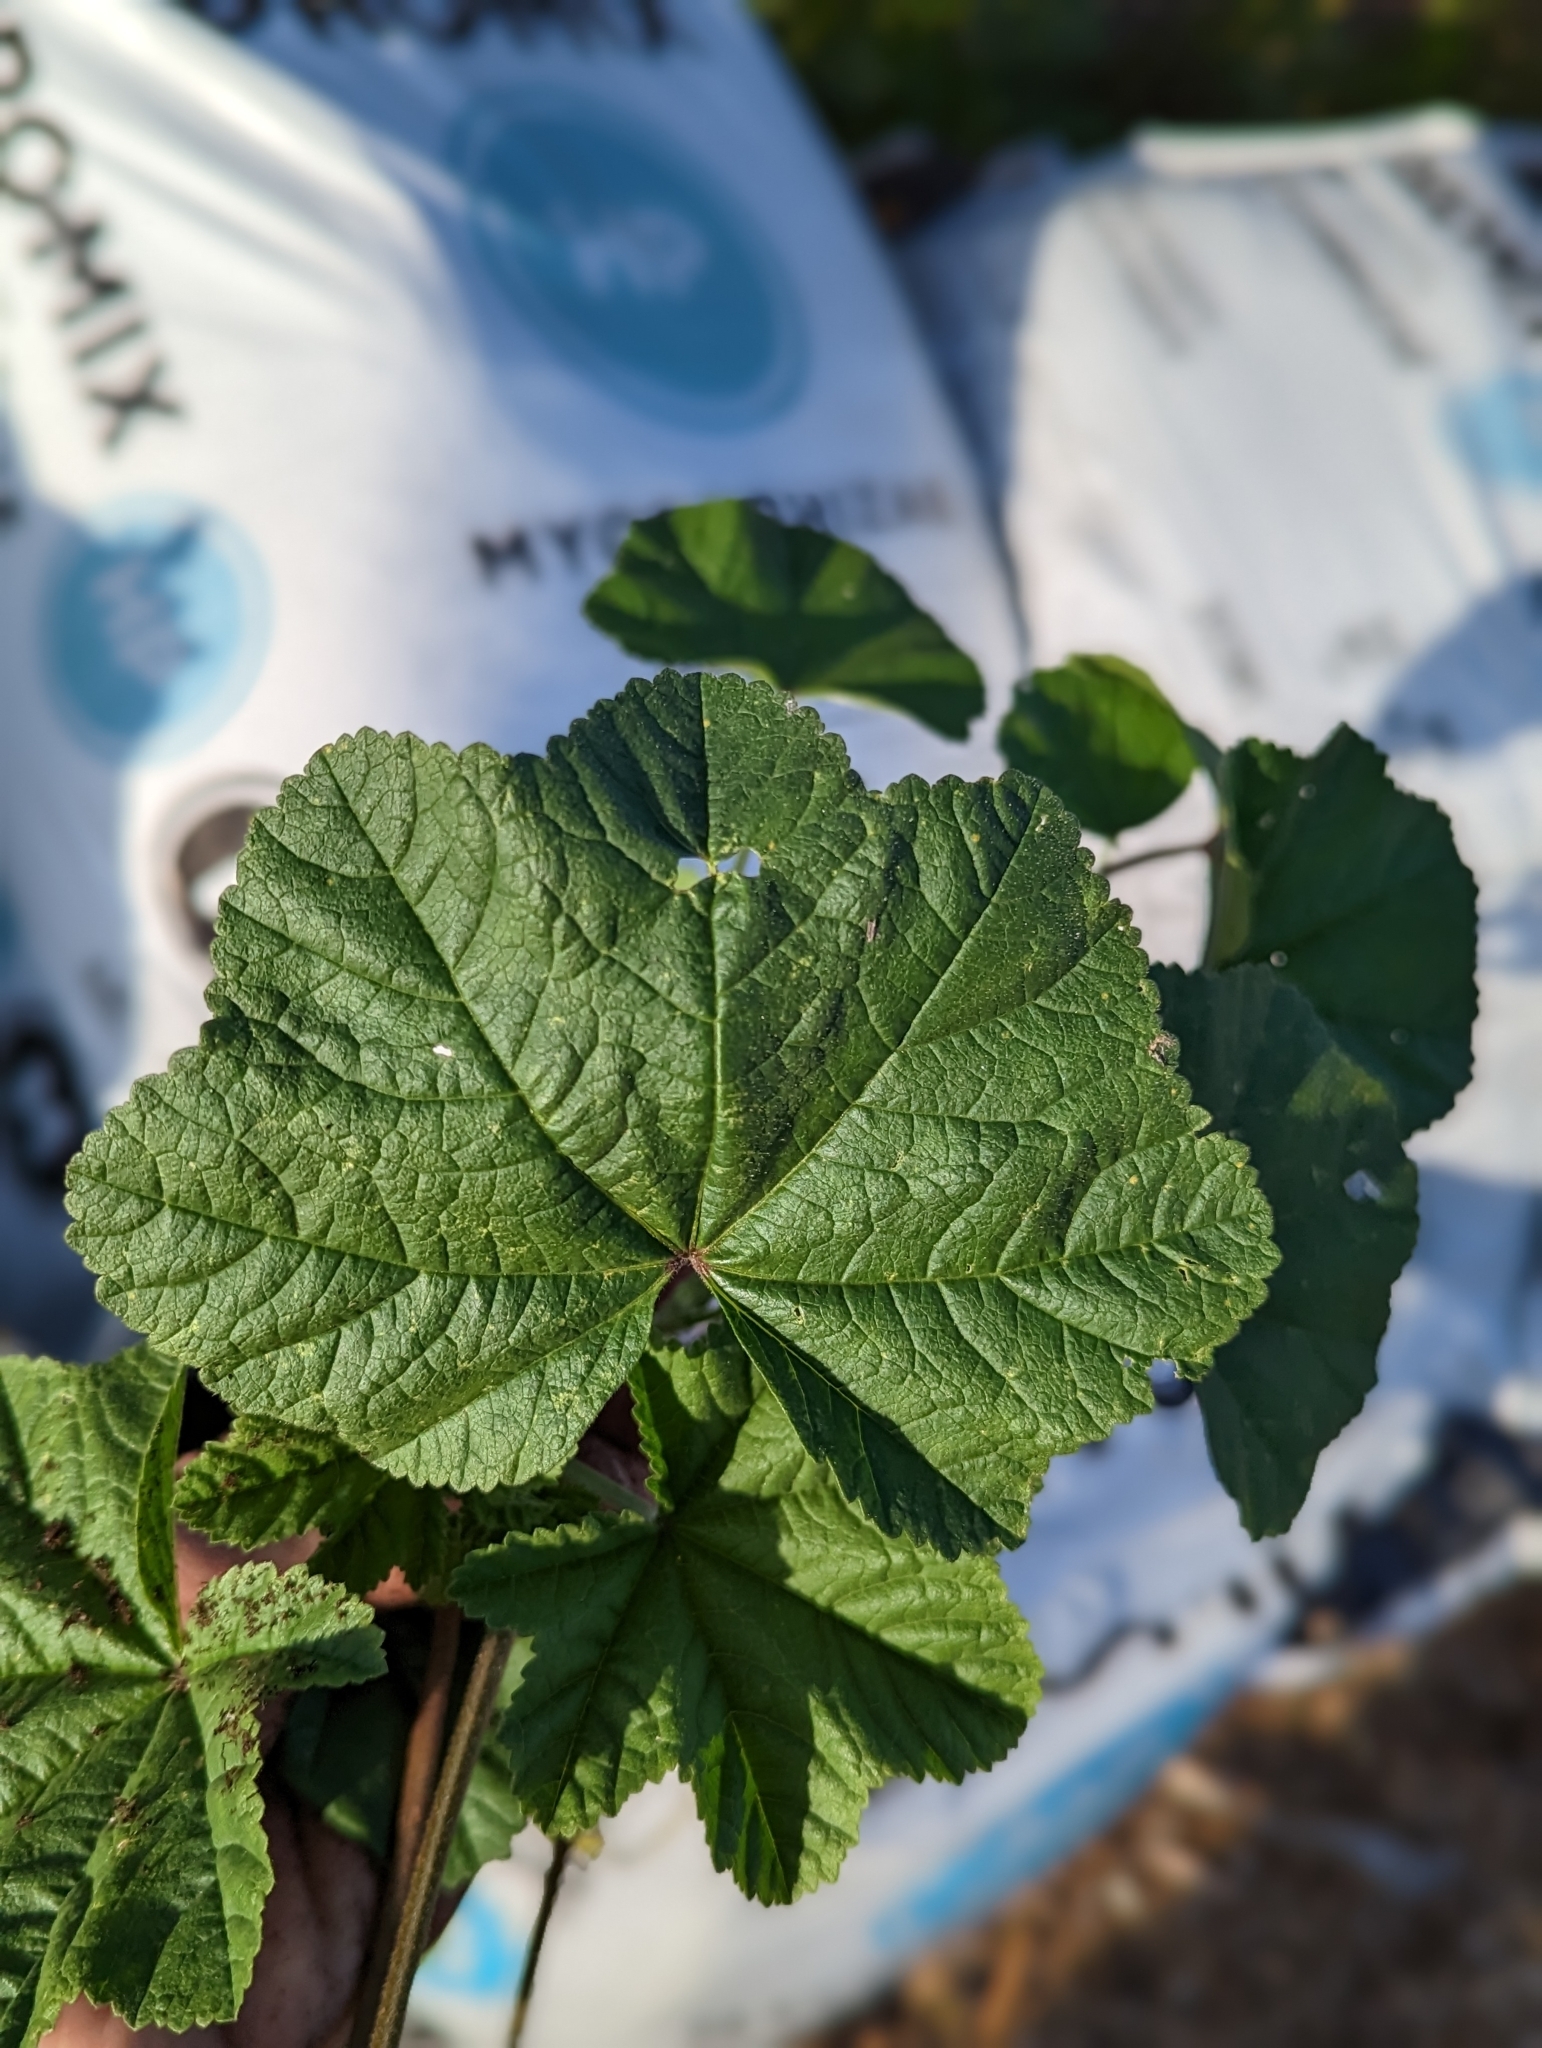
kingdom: Plantae
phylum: Tracheophyta
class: Magnoliopsida
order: Malvales
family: Malvaceae
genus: Malva
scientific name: Malva
